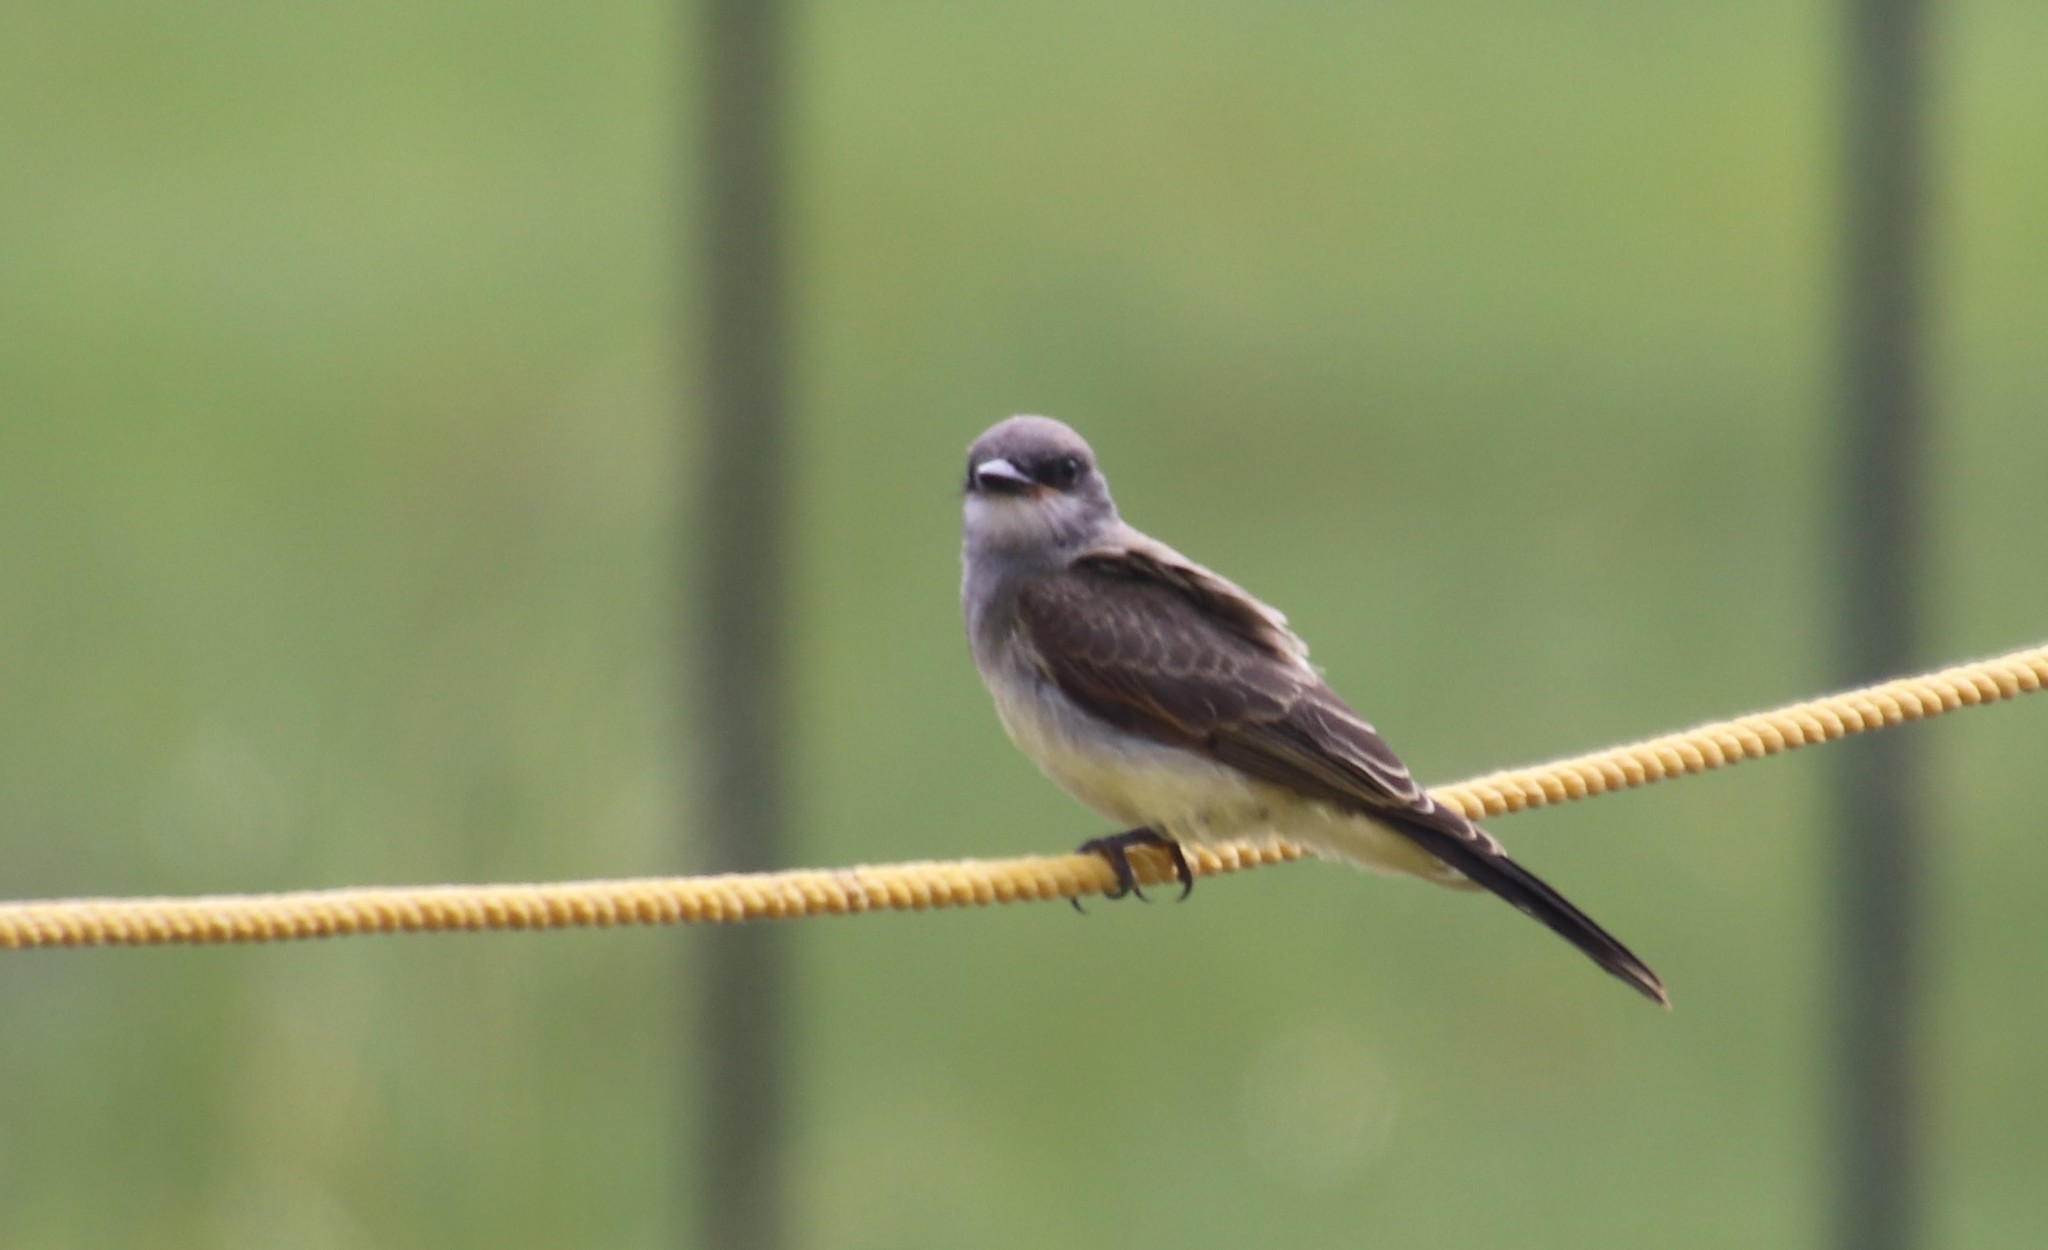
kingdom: Animalia
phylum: Chordata
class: Aves
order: Passeriformes
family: Tyrannidae
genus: Tyrannus
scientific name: Tyrannus vociferans
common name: Cassin's kingbird
